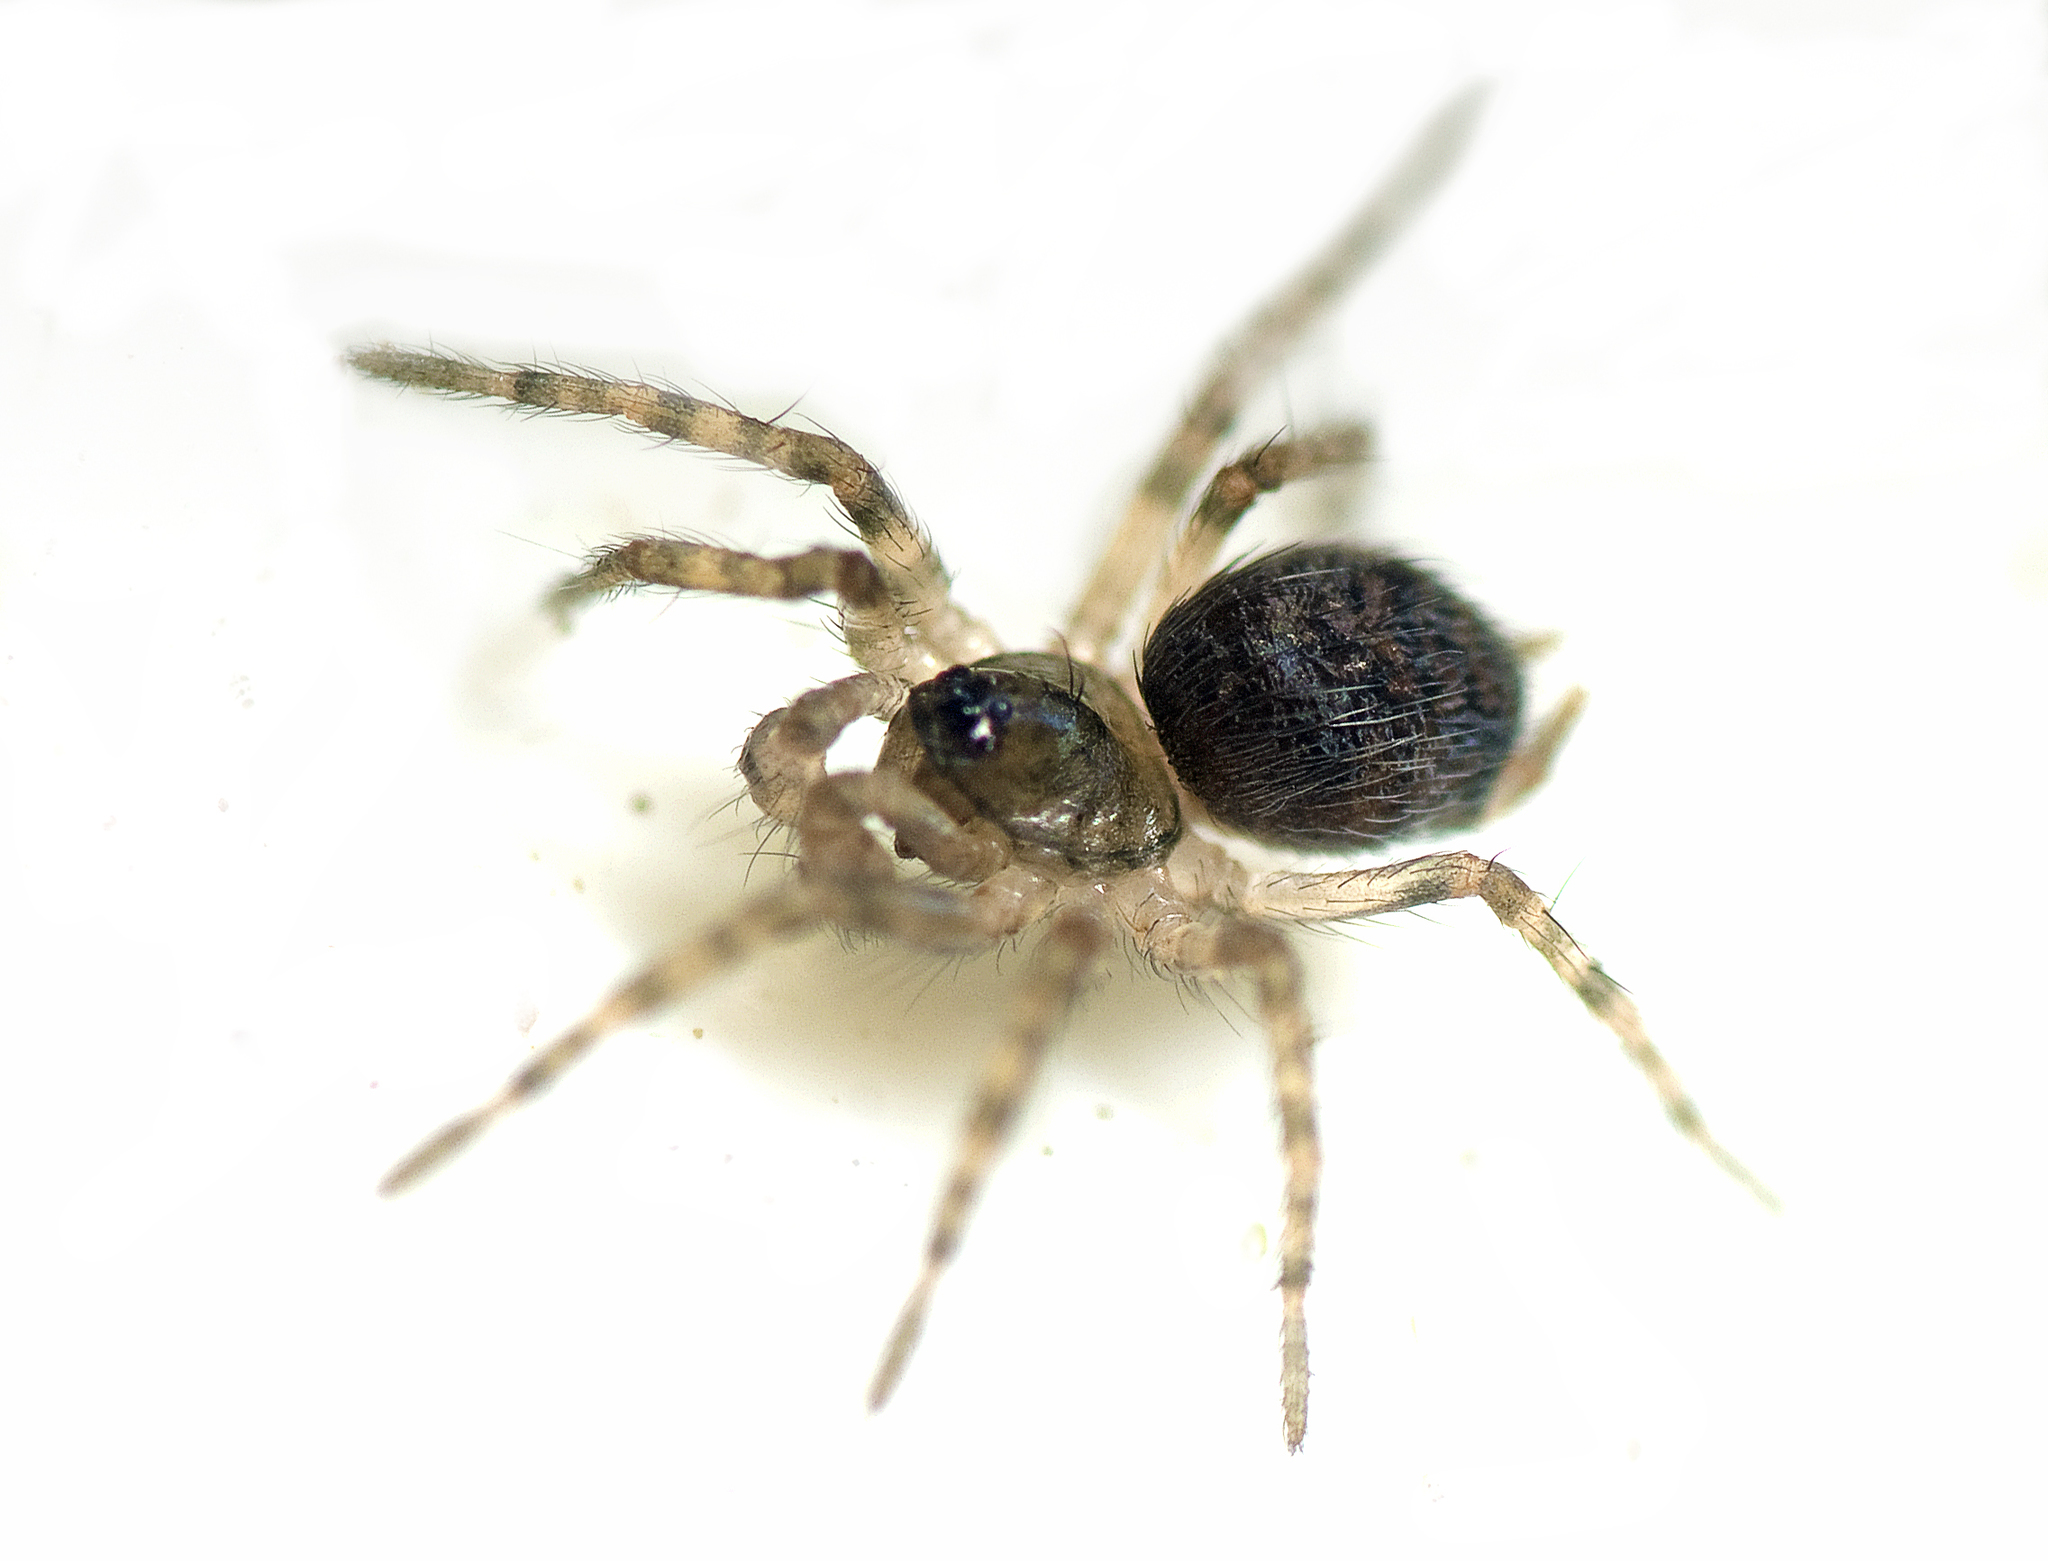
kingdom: Animalia
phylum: Arthropoda
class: Arachnida
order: Araneae
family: Hahniidae
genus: Scotospilus
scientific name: Scotospilus
